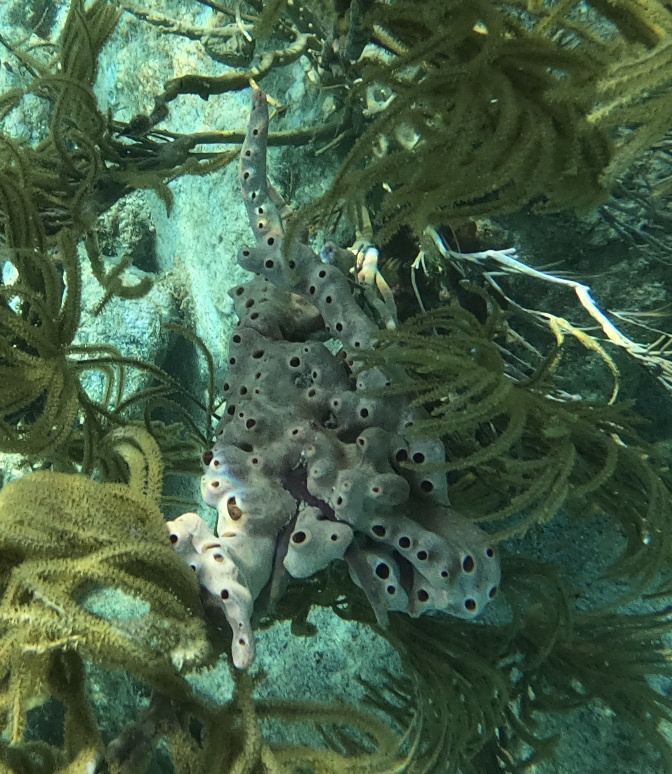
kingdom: Animalia
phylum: Porifera
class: Demospongiae
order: Poecilosclerida
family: Desmacididae
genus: Desmapsamma
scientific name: Desmapsamma anchorata
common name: Lumpy overgrowing sponge
